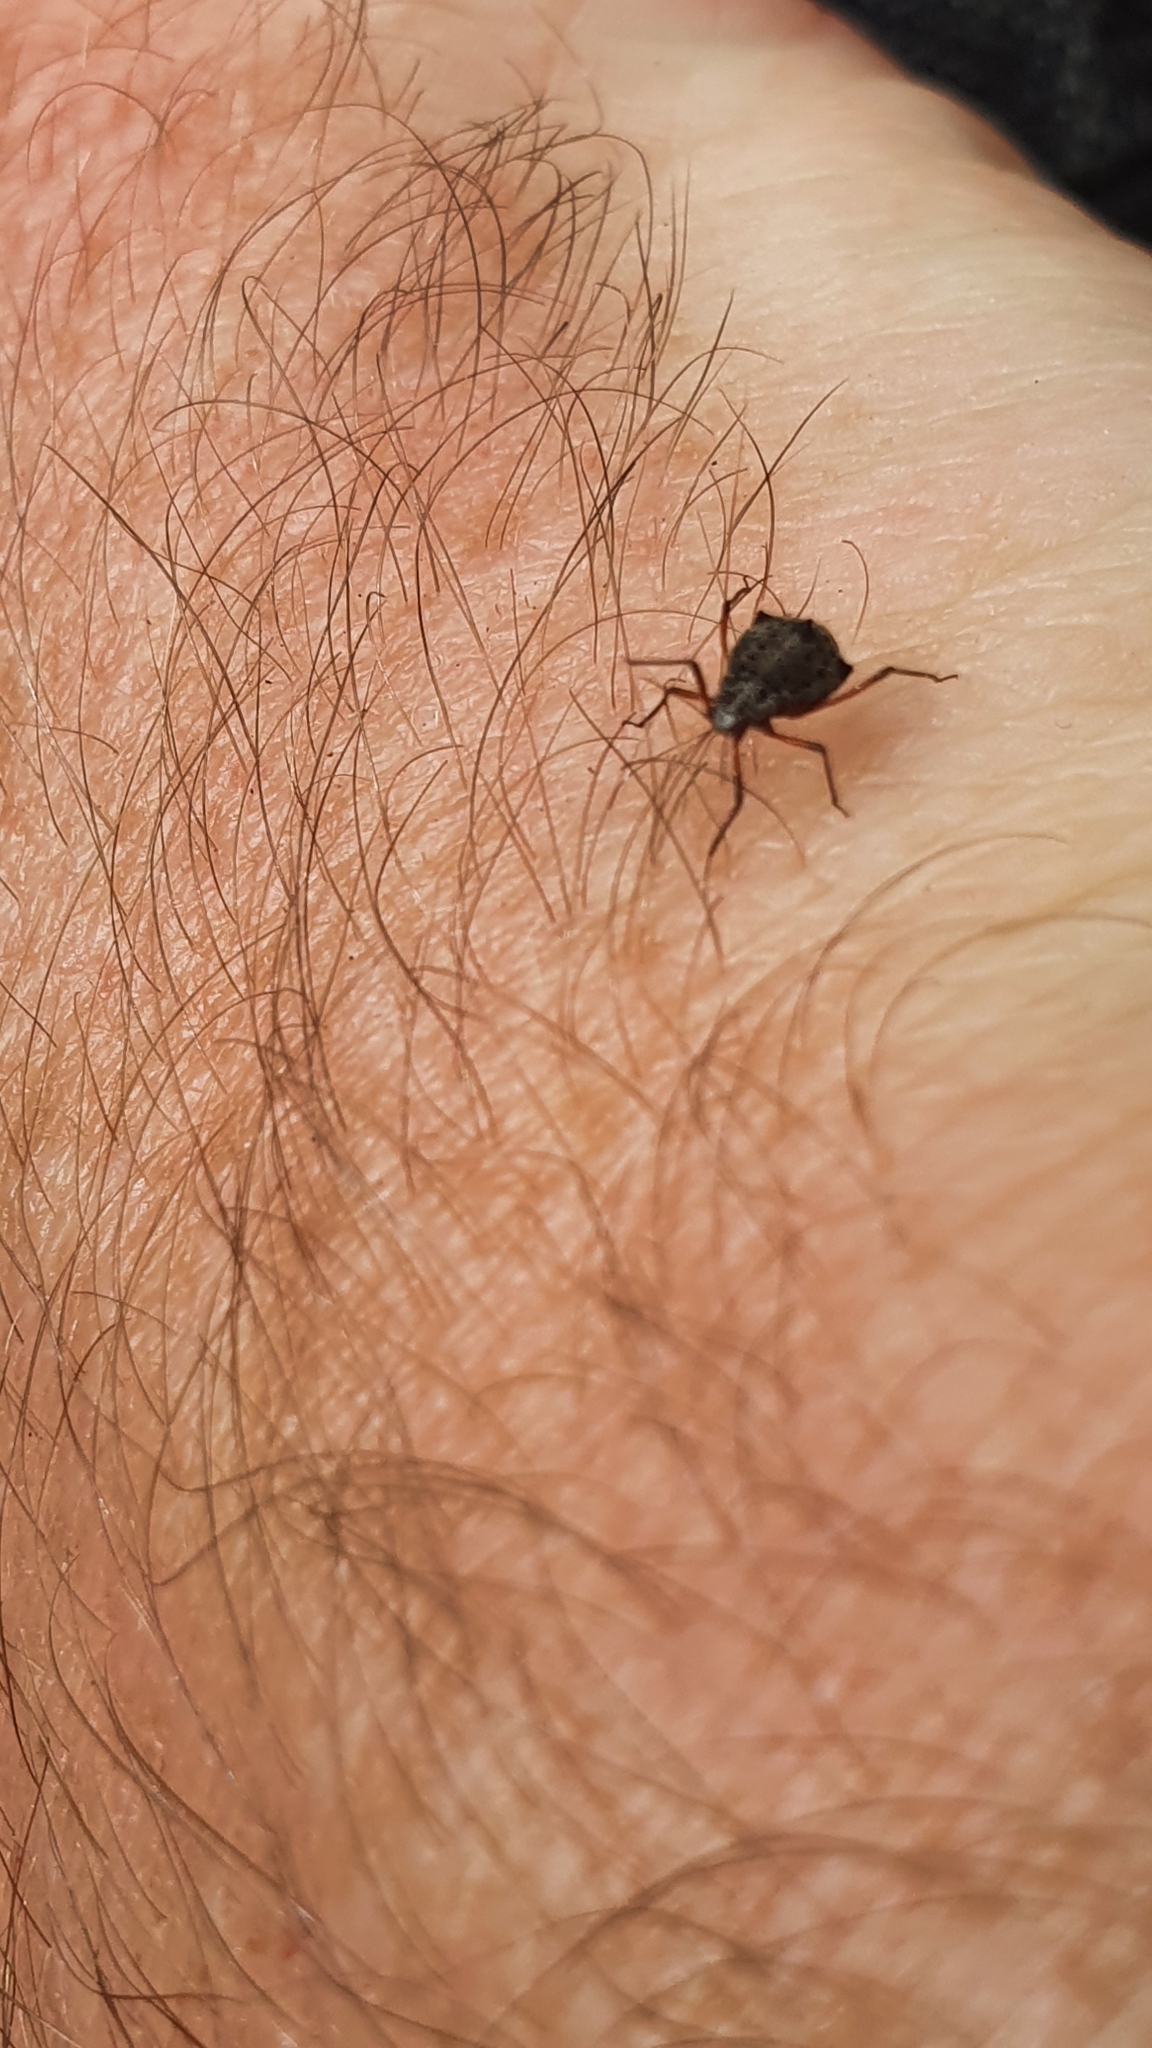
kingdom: Animalia
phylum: Arthropoda
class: Insecta
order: Hemiptera
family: Aphididae
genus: Tuberolachnus
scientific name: Tuberolachnus salignus
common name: Giant willow aphid
